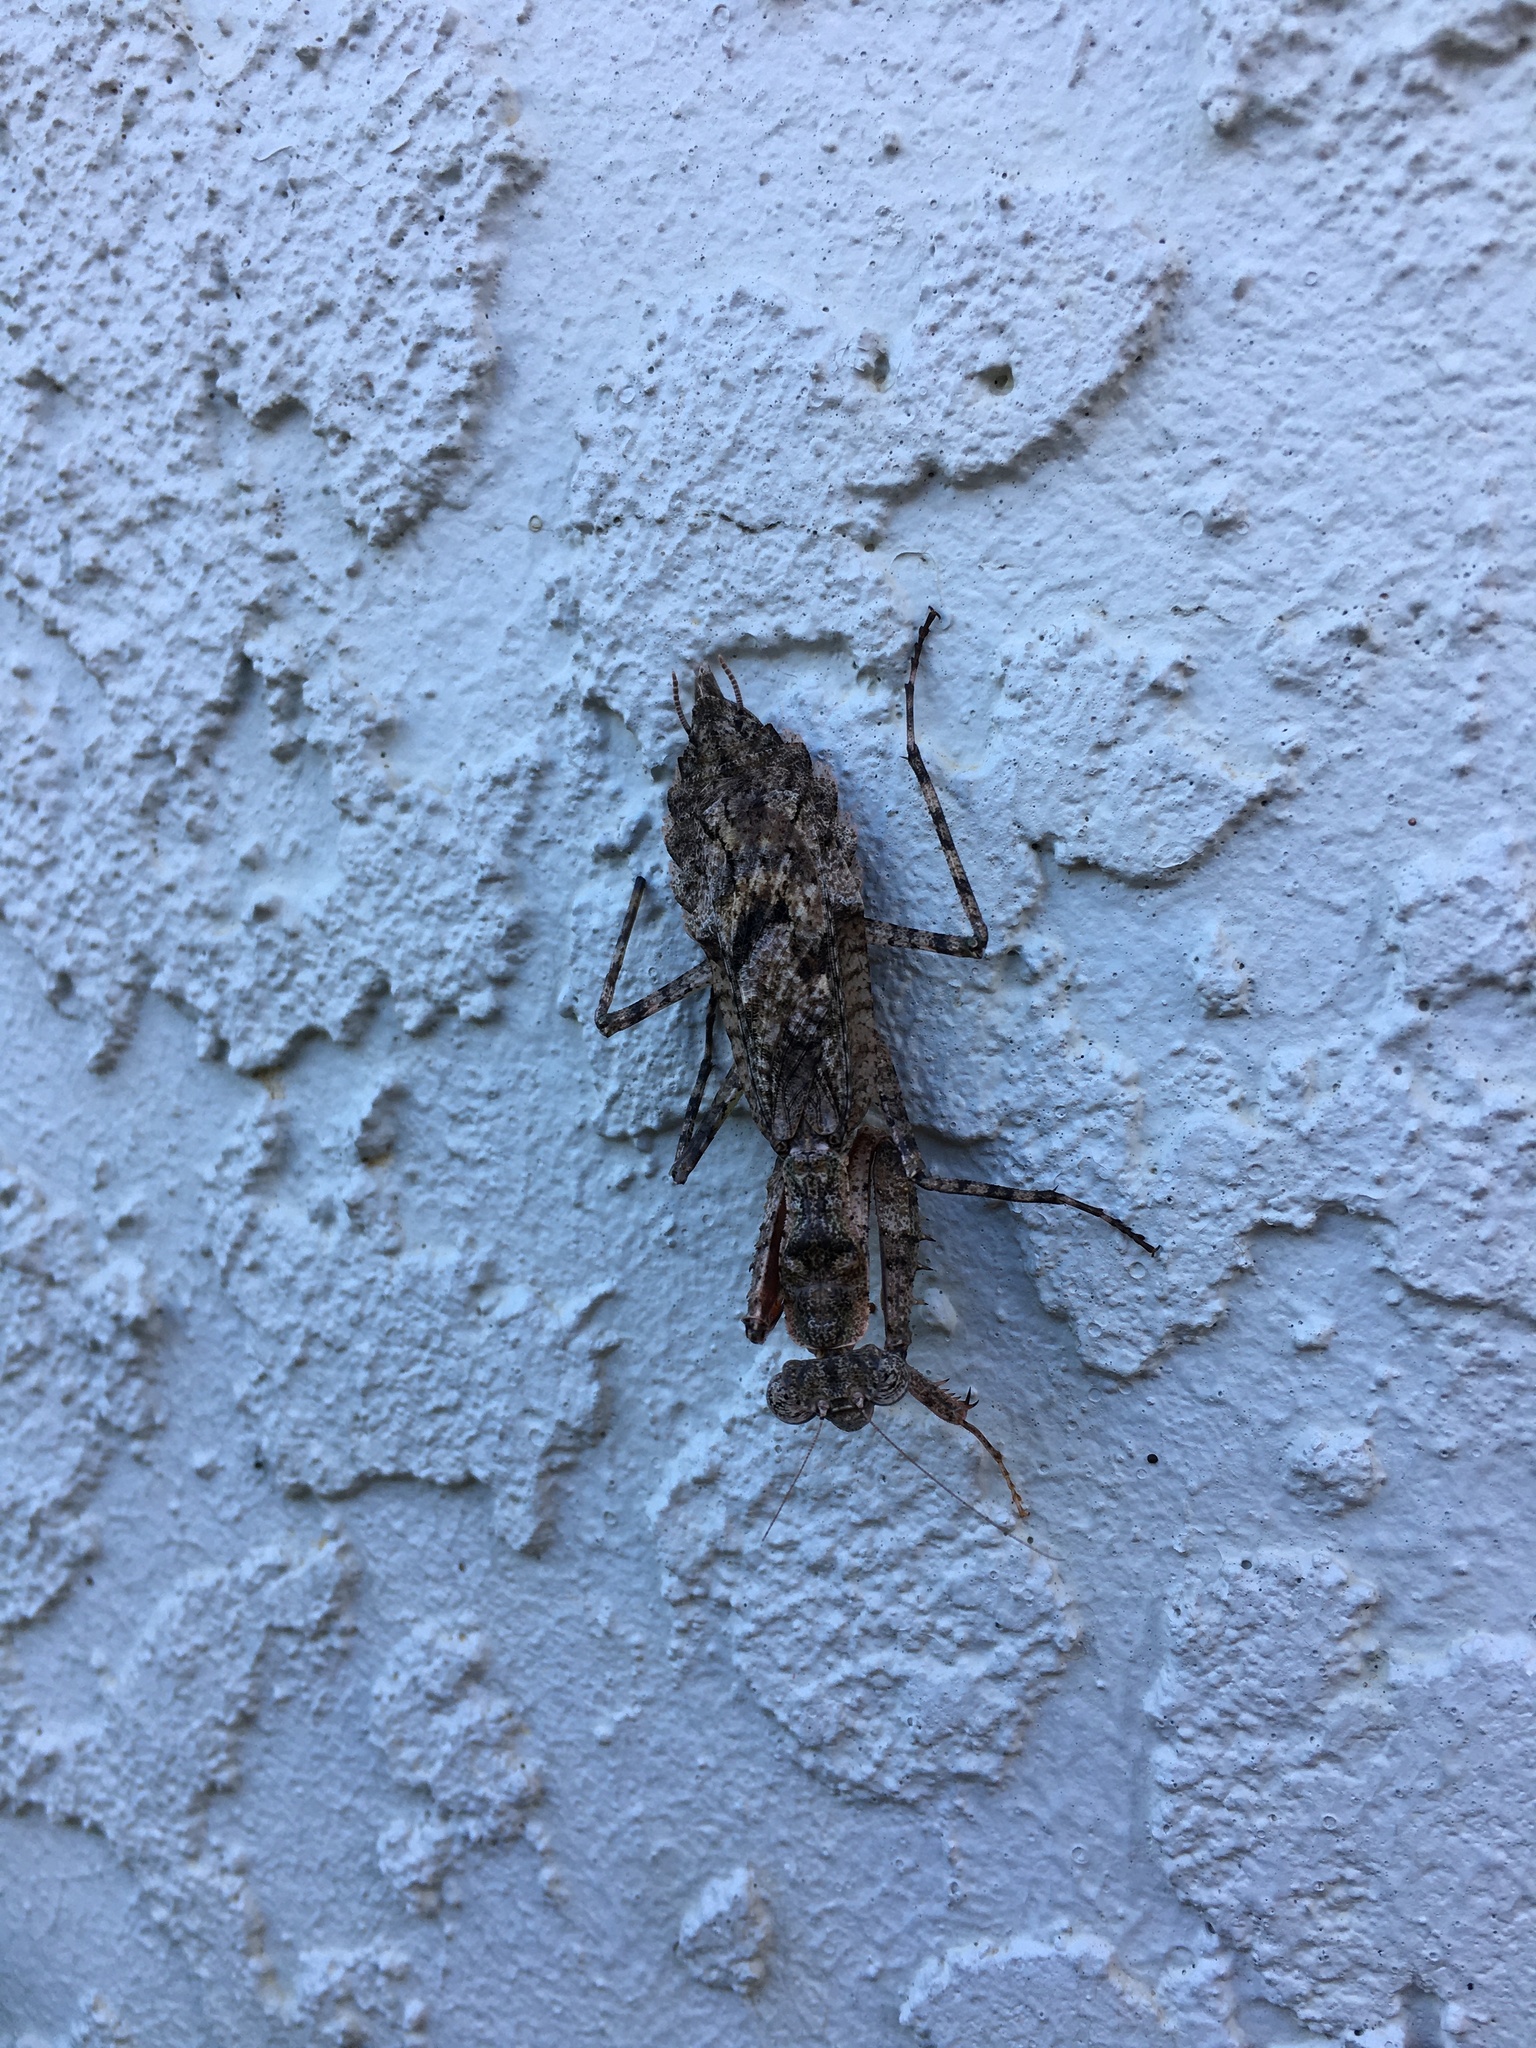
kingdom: Animalia
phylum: Arthropoda
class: Insecta
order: Mantodea
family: Epaphroditidae
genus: Gonatista
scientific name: Gonatista grisea
